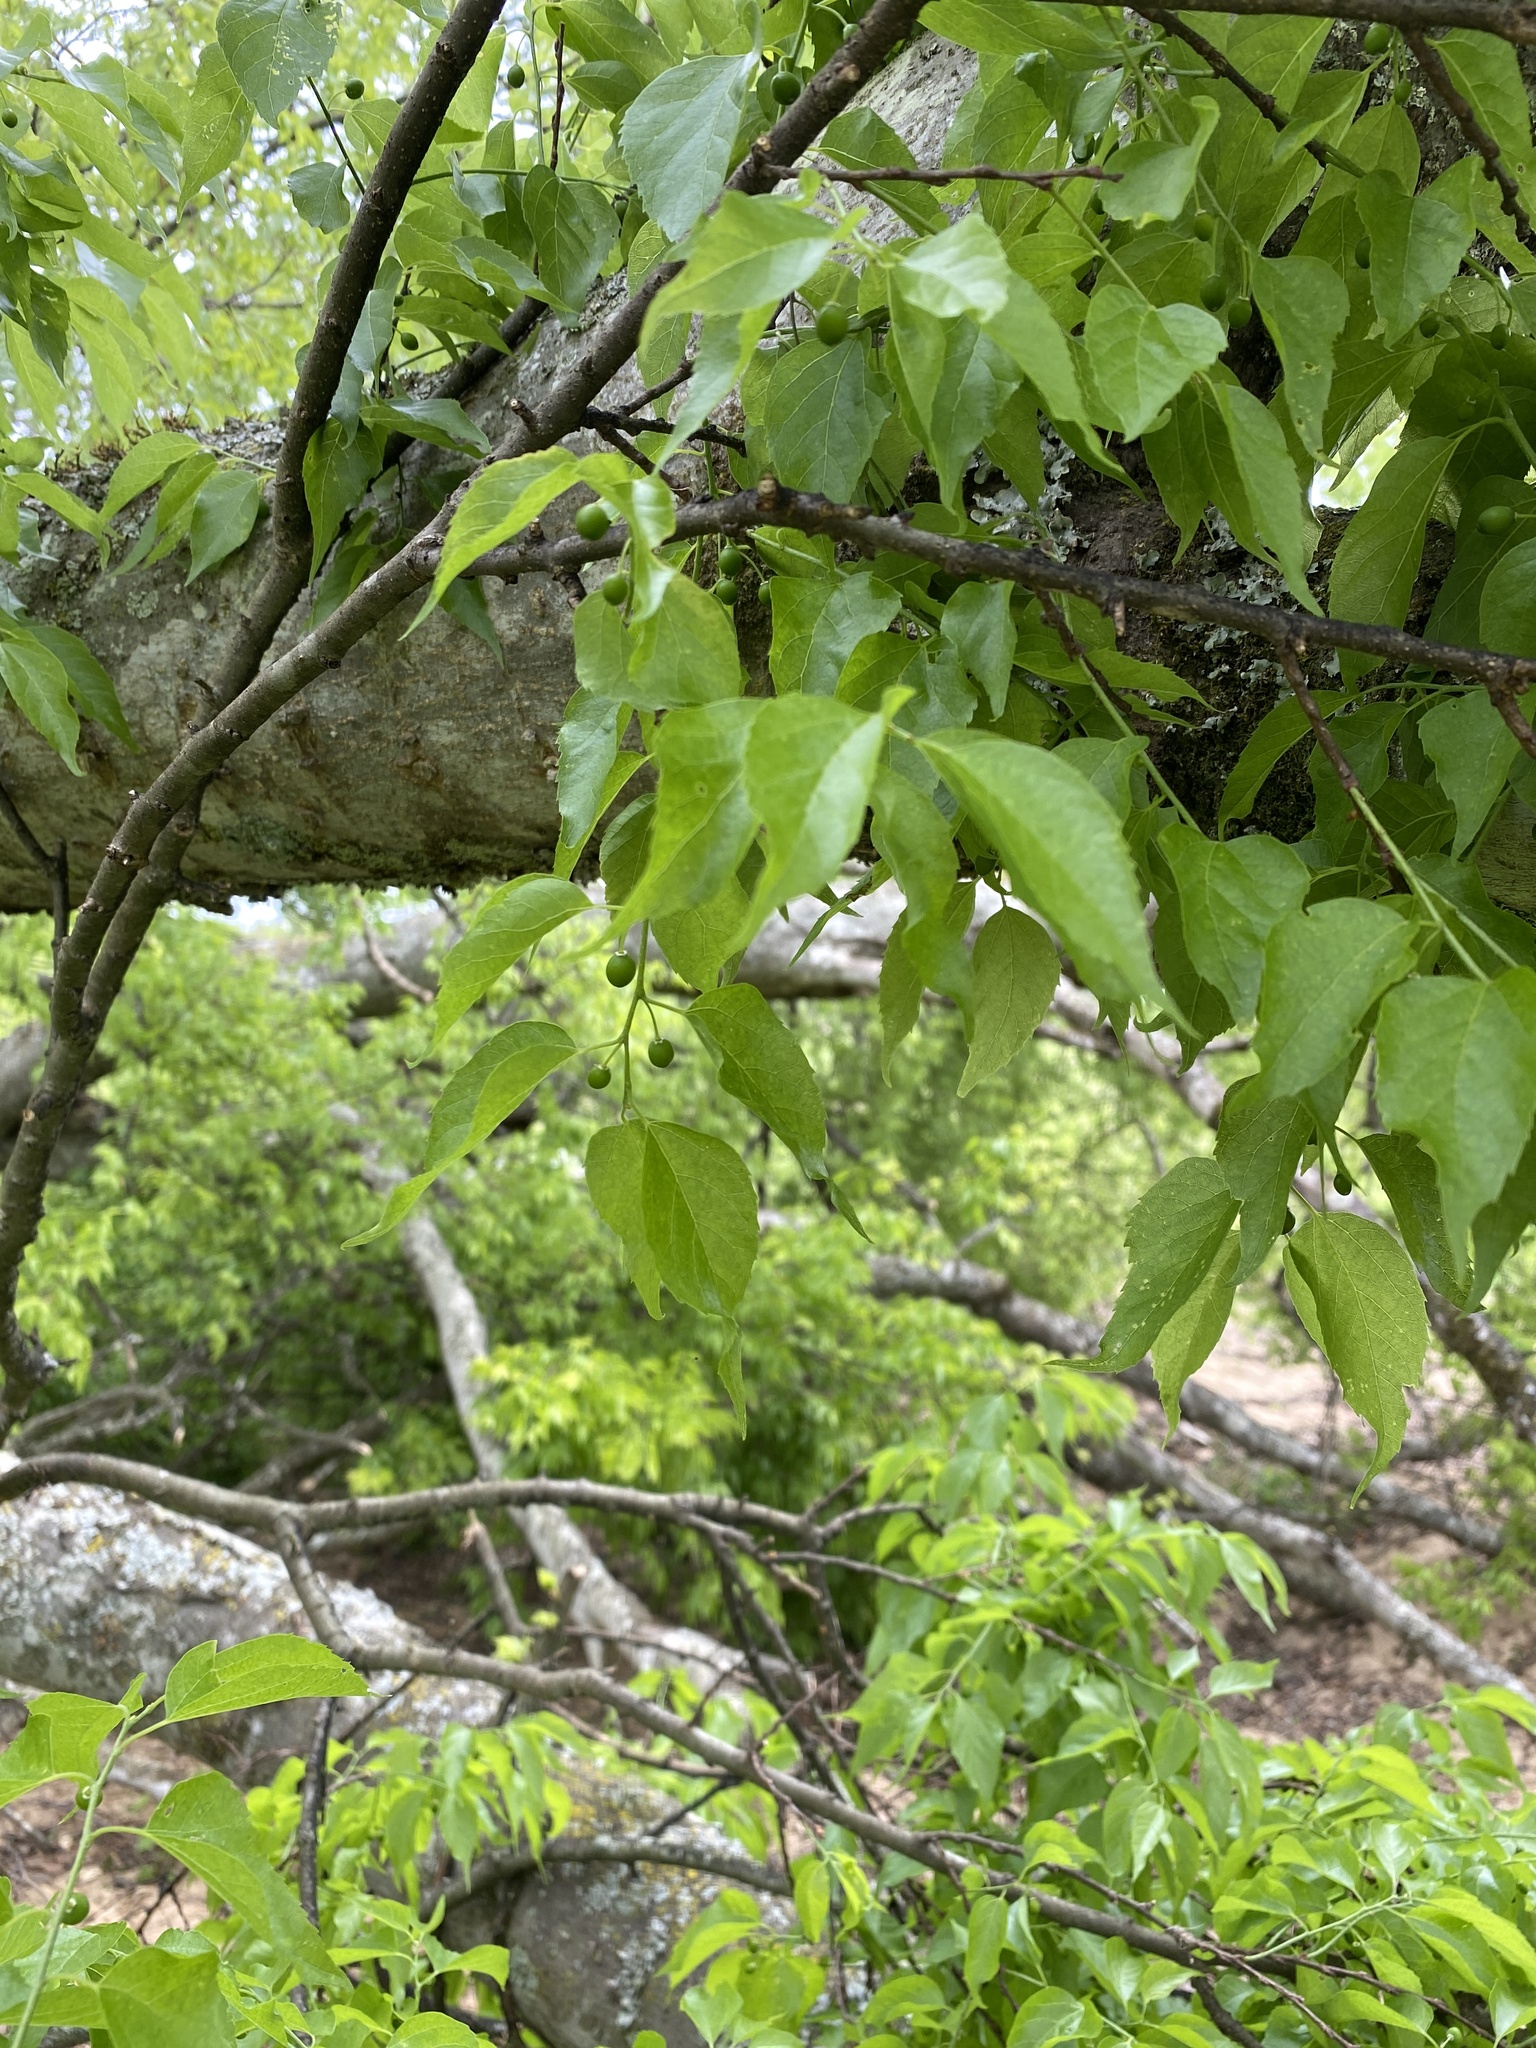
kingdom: Plantae
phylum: Tracheophyta
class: Magnoliopsida
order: Rosales
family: Cannabaceae
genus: Celtis
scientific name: Celtis laevigata
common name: Sugarberry
